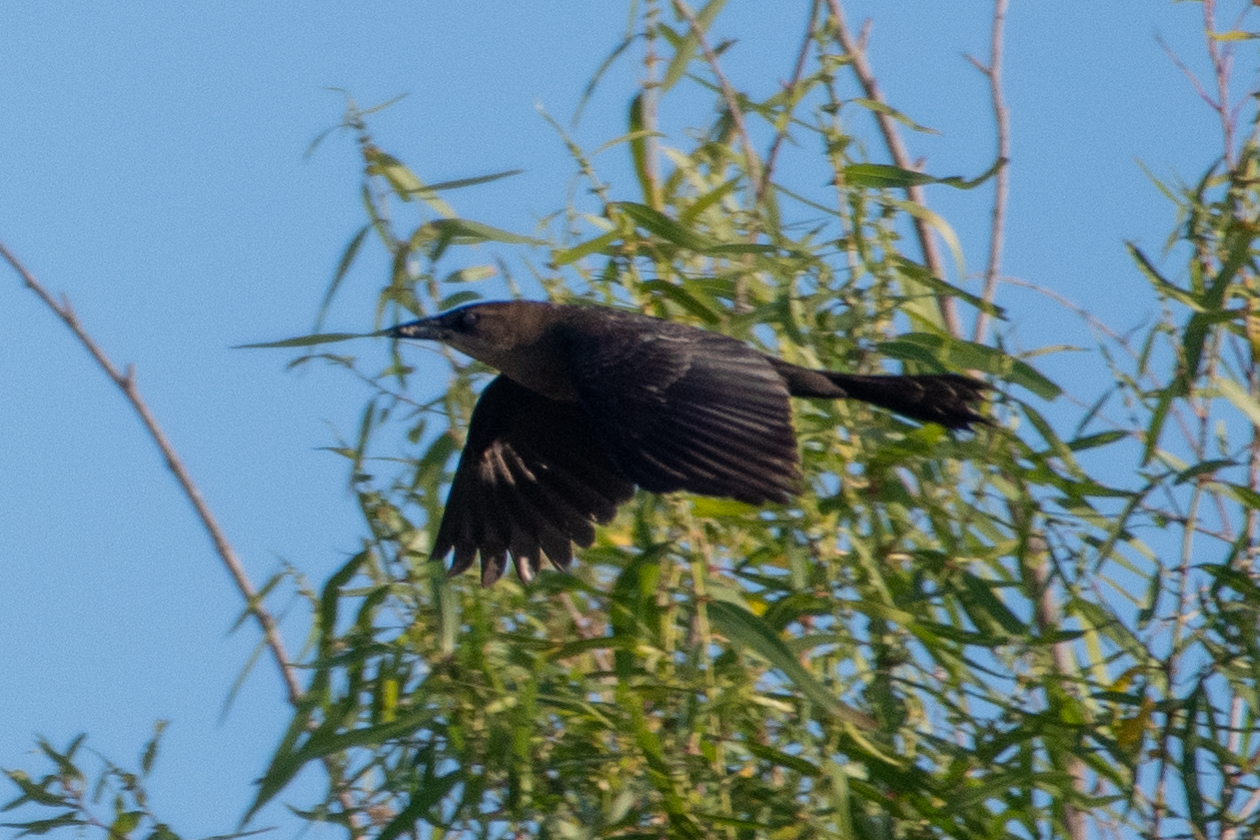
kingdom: Animalia
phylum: Chordata
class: Aves
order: Passeriformes
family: Icteridae
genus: Quiscalus
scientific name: Quiscalus mexicanus
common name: Great-tailed grackle
